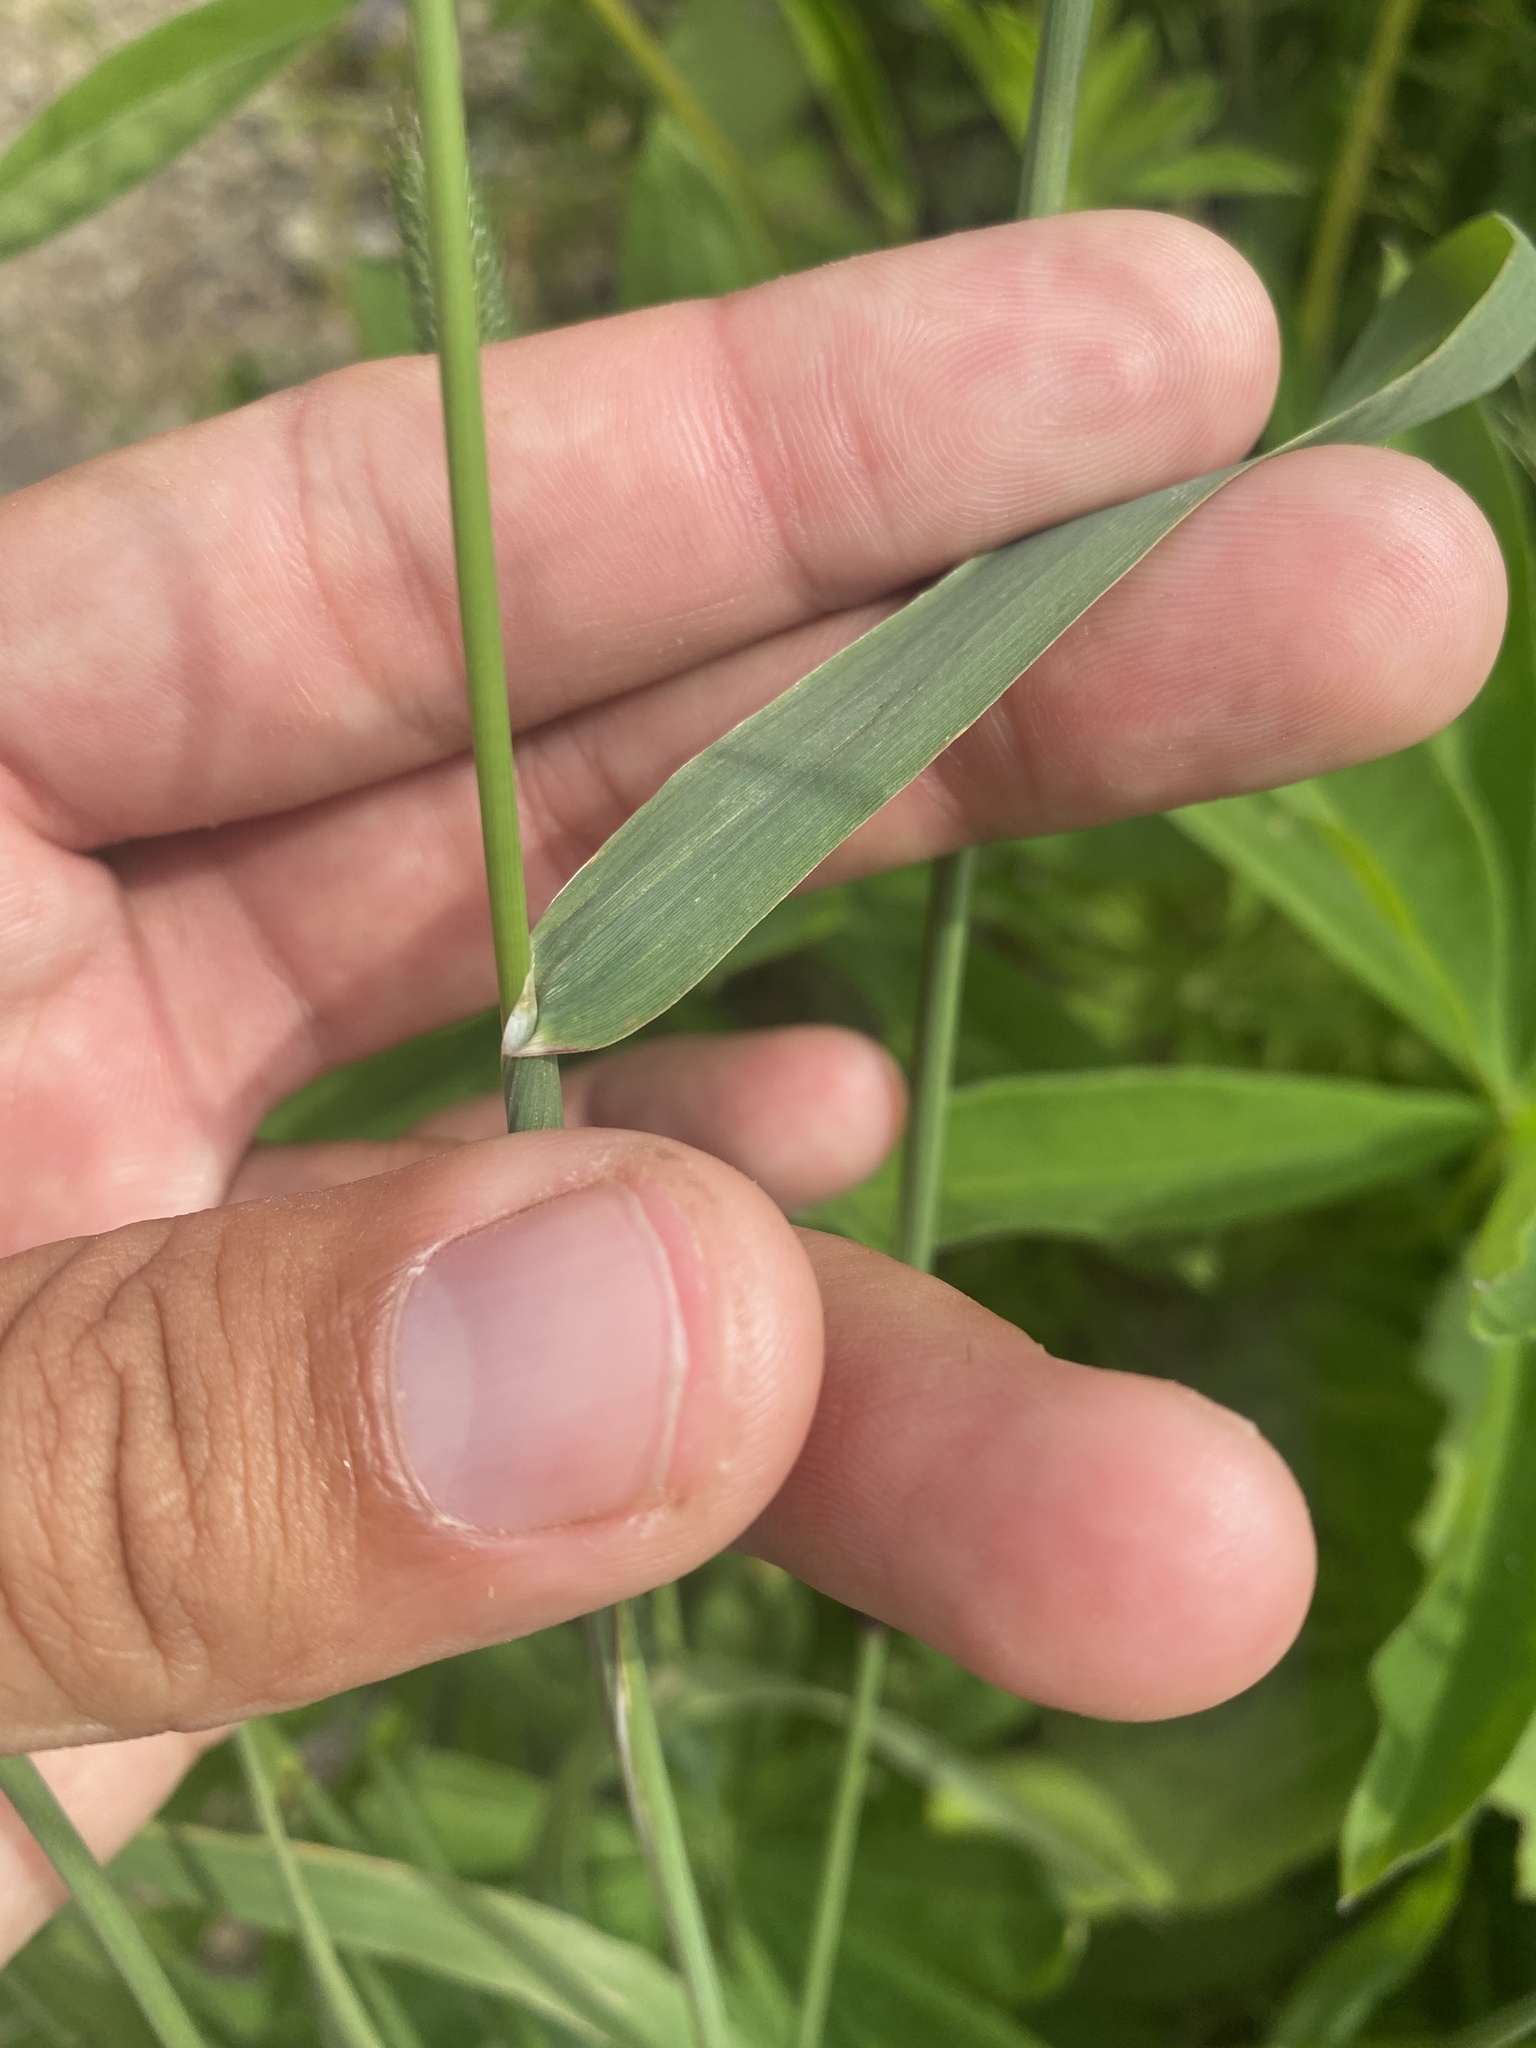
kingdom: Plantae
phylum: Tracheophyta
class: Liliopsida
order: Poales
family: Poaceae
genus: Phleum
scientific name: Phleum pratense
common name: Timothy grass
